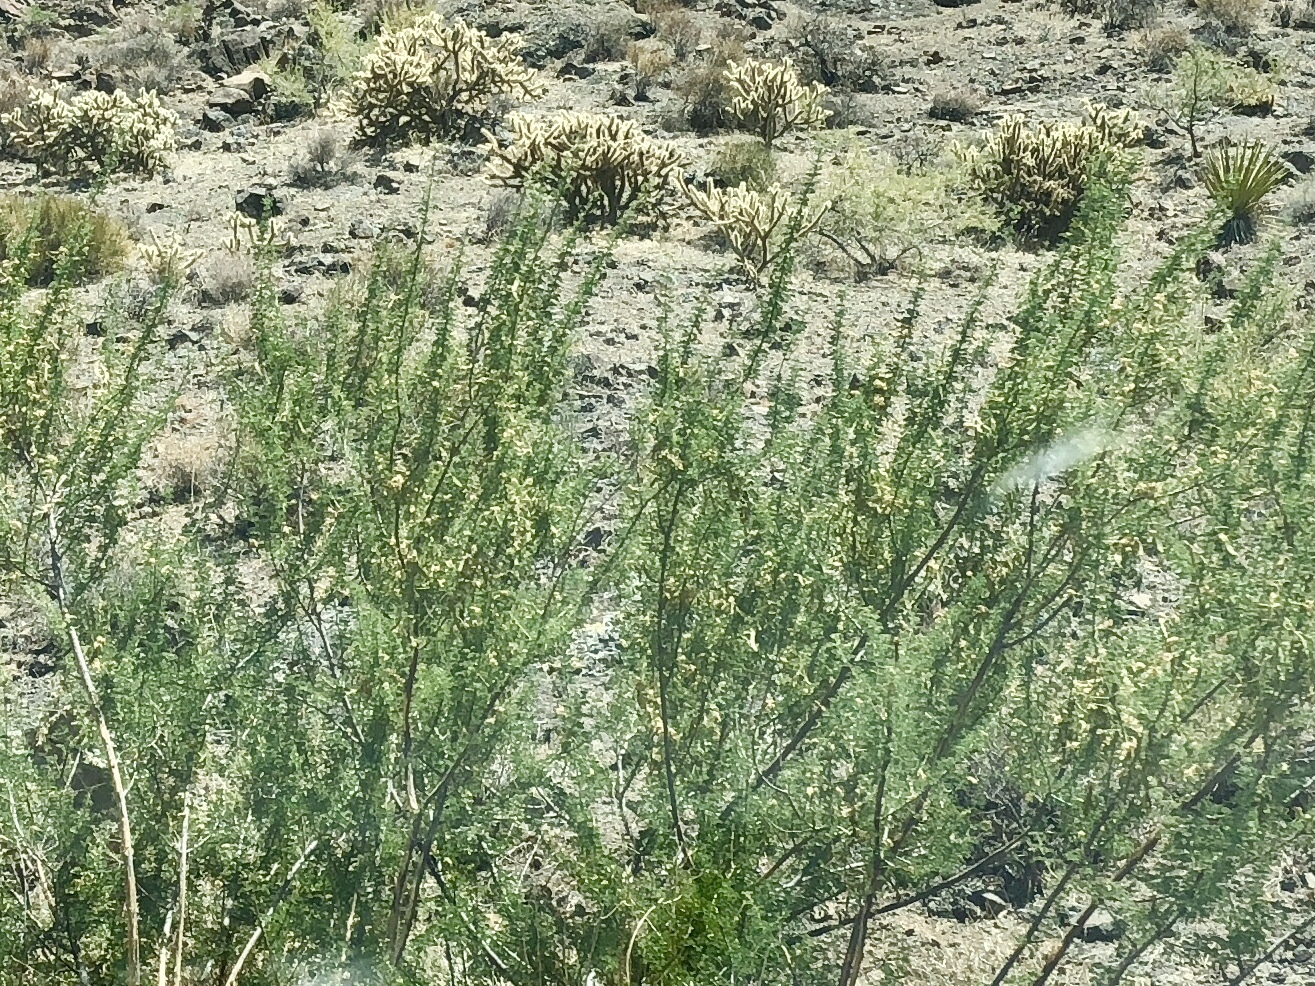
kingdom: Plantae
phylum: Tracheophyta
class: Magnoliopsida
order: Fabales
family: Fabaceae
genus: Senegalia
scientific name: Senegalia greggii
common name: Texas-mimosa
